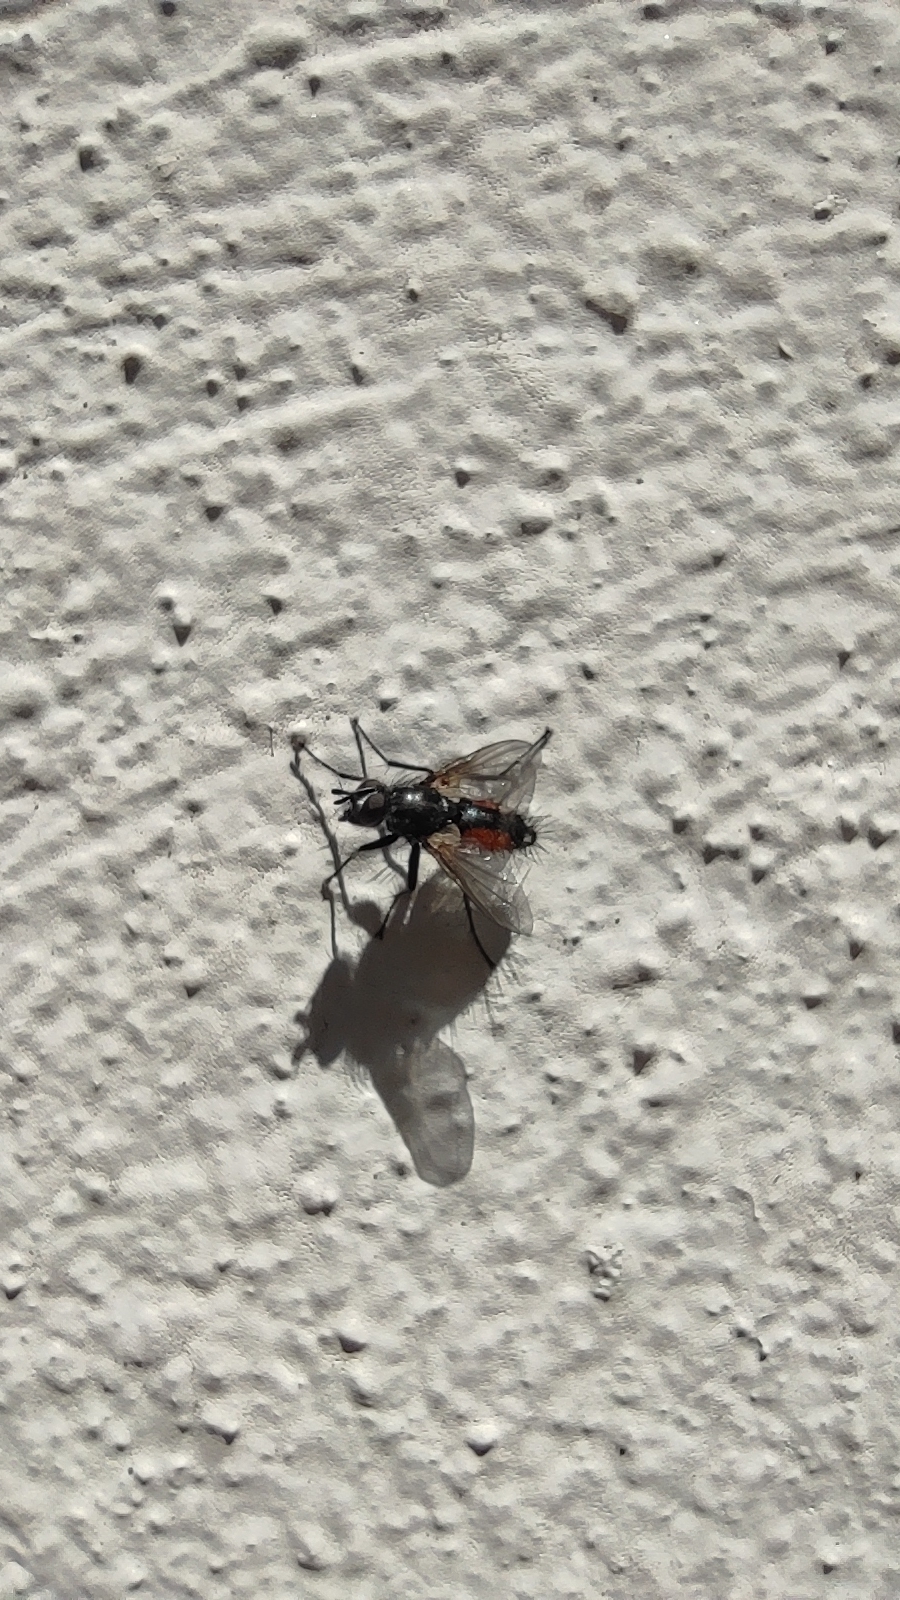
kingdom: Animalia
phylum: Arthropoda
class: Insecta
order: Diptera
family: Tachinidae
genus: Eriothrix
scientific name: Eriothrix rufomaculatus
